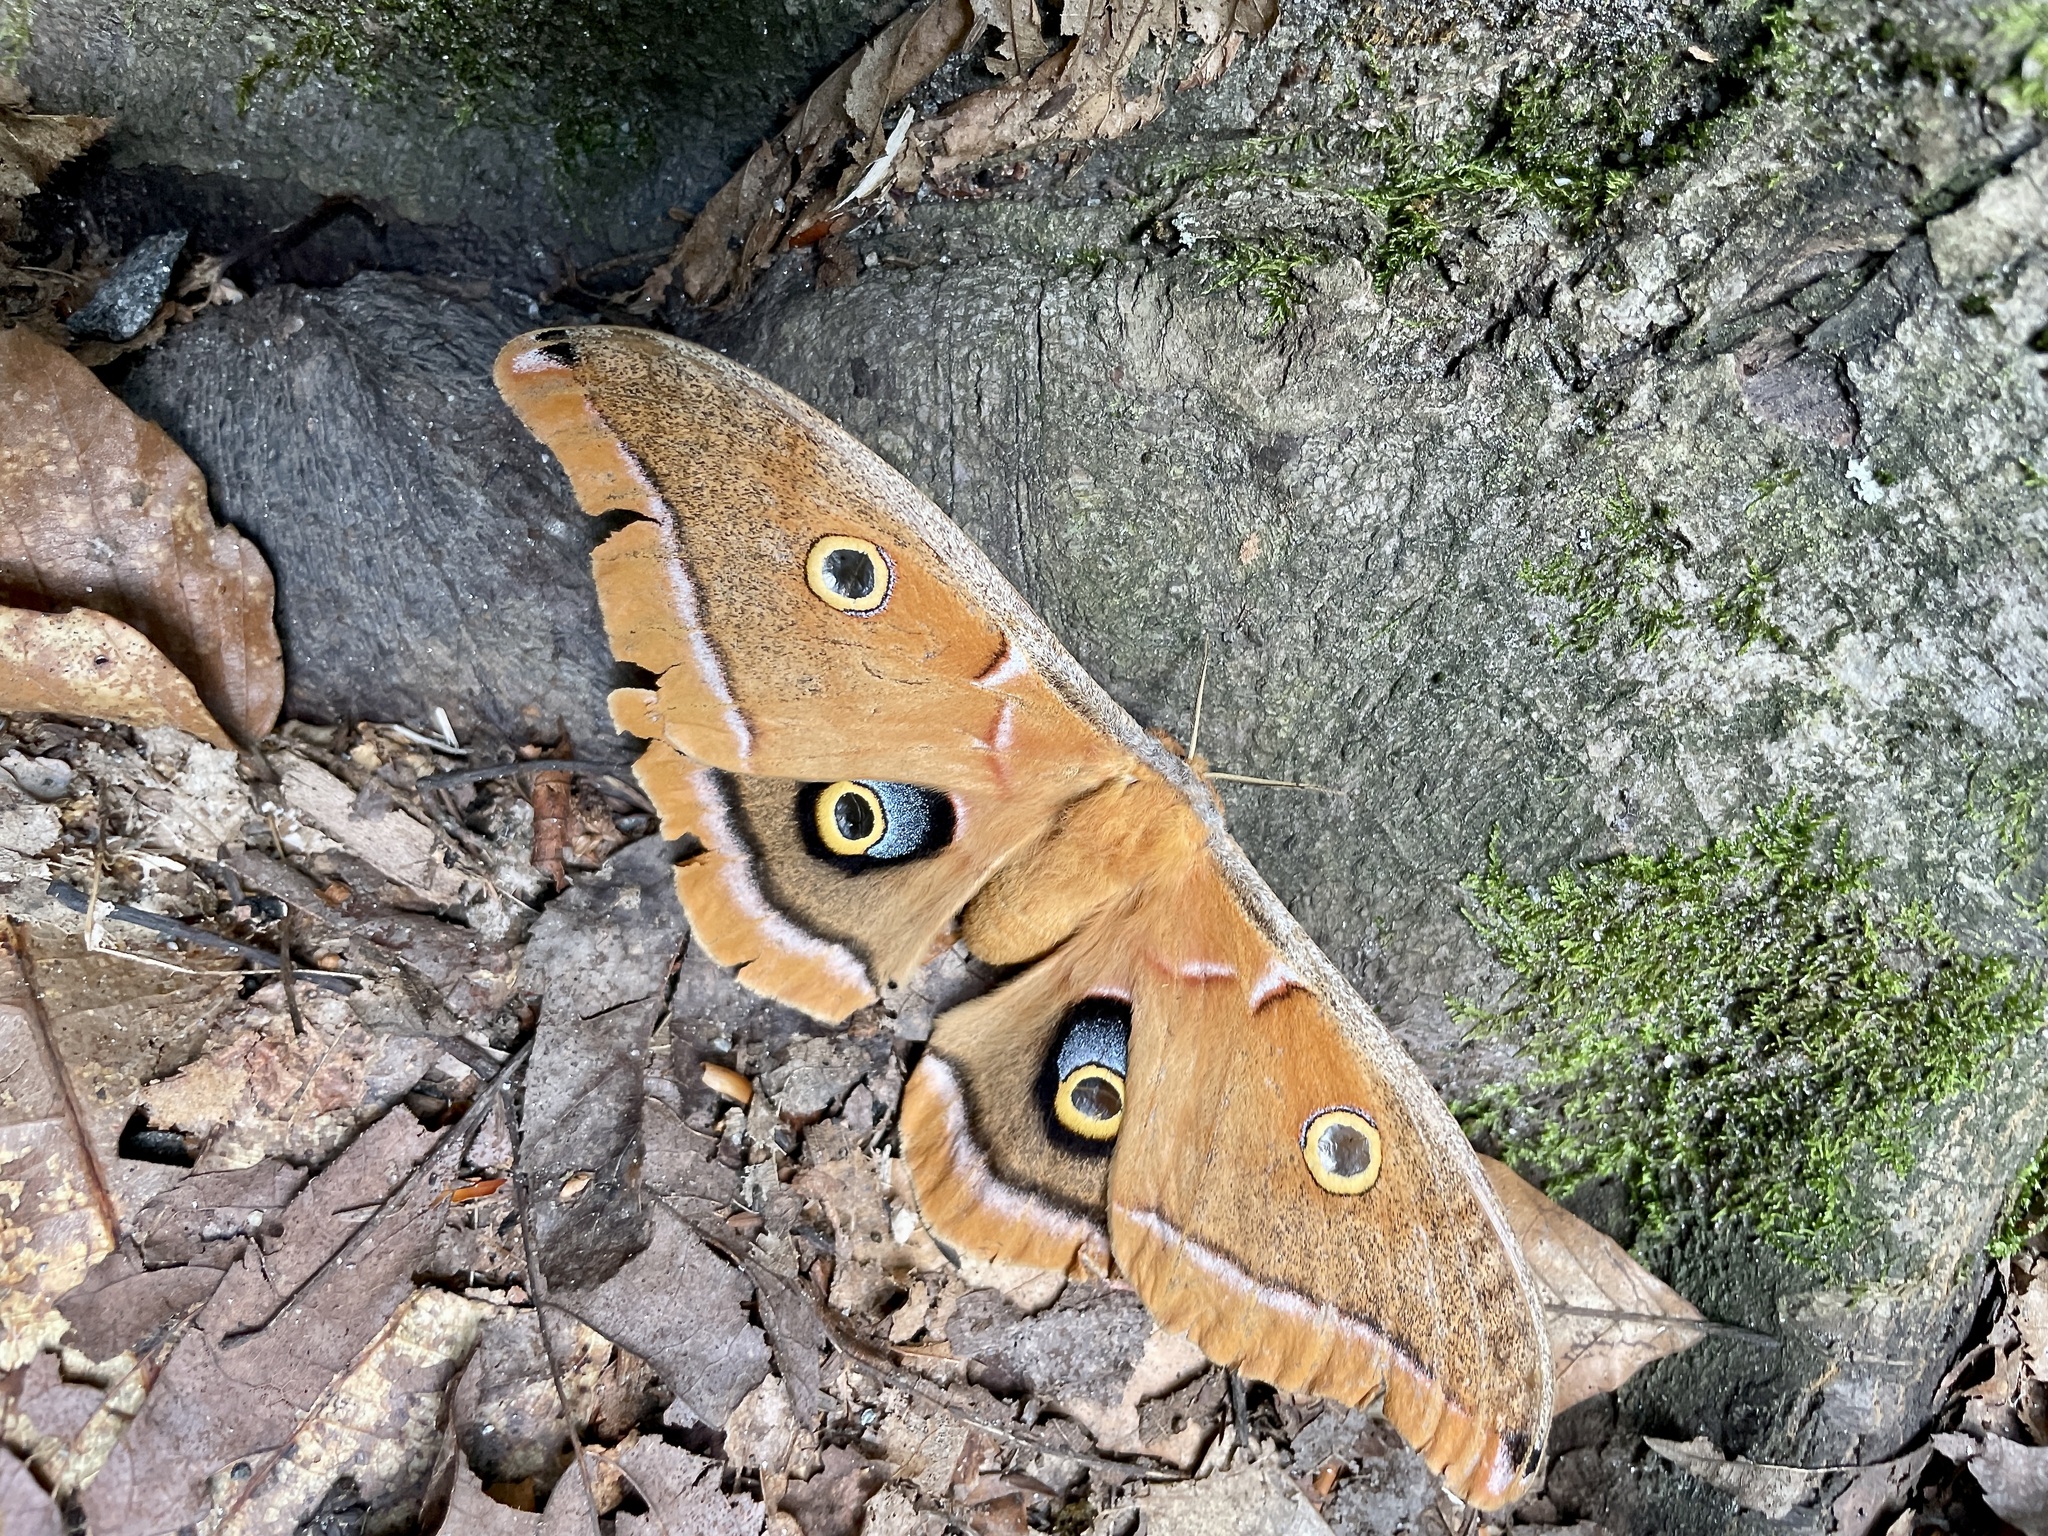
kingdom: Animalia
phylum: Arthropoda
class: Insecta
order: Lepidoptera
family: Saturniidae
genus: Antheraea
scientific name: Antheraea polyphemus
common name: Polyphemus moth
